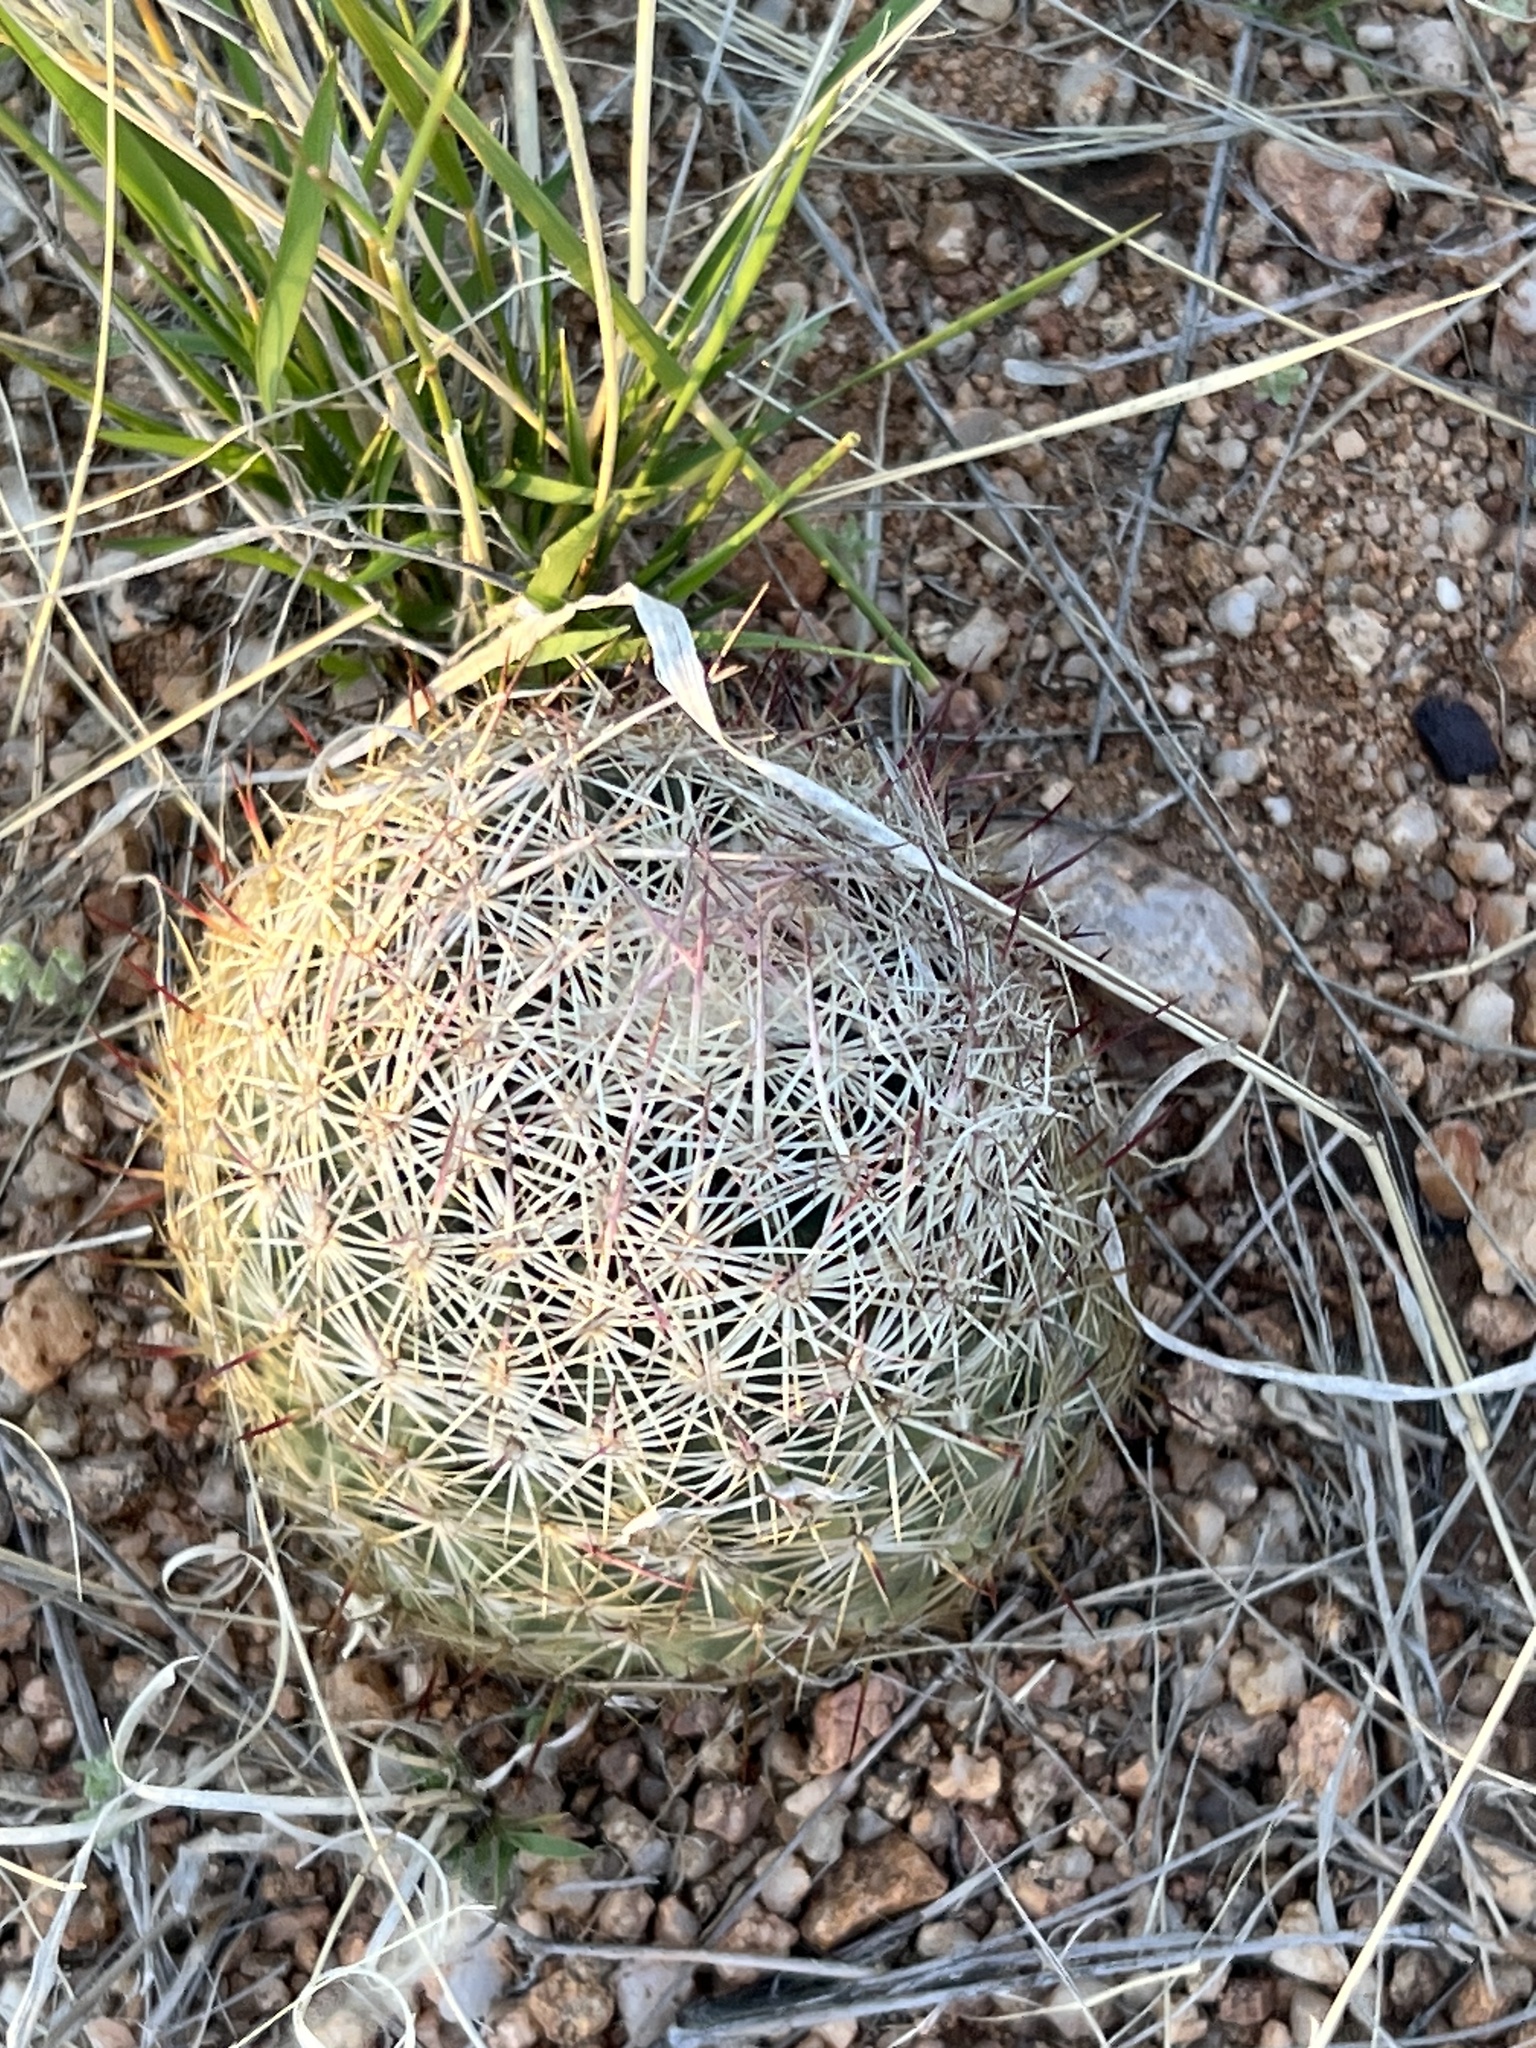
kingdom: Plantae
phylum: Tracheophyta
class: Magnoliopsida
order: Caryophyllales
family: Cactaceae
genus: Sclerocactus
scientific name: Sclerocactus johnsonii
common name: Eight-spine fishhook cactus
